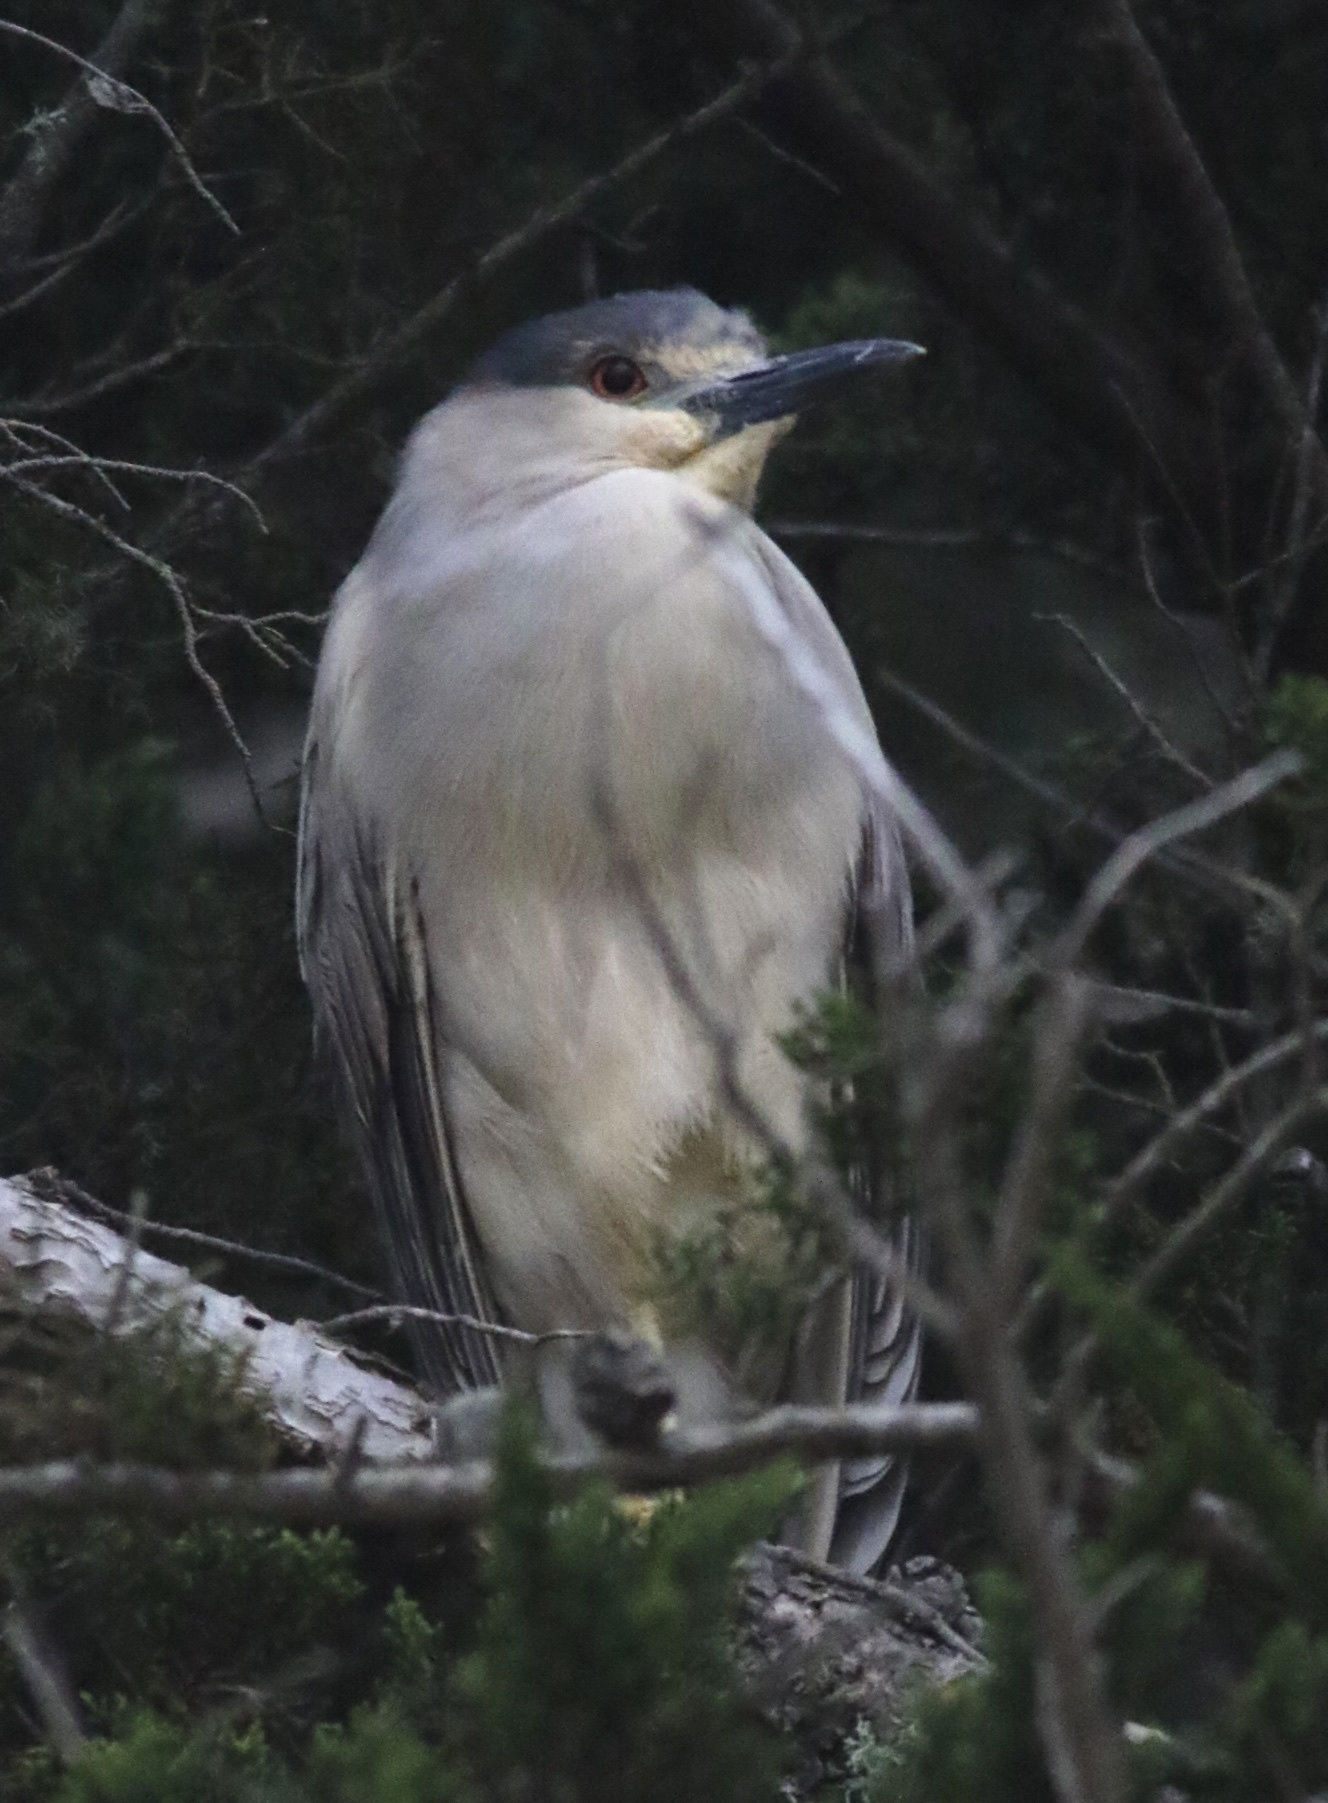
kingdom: Animalia
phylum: Chordata
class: Aves
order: Pelecaniformes
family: Ardeidae
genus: Nycticorax
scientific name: Nycticorax nycticorax
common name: Black-crowned night heron
